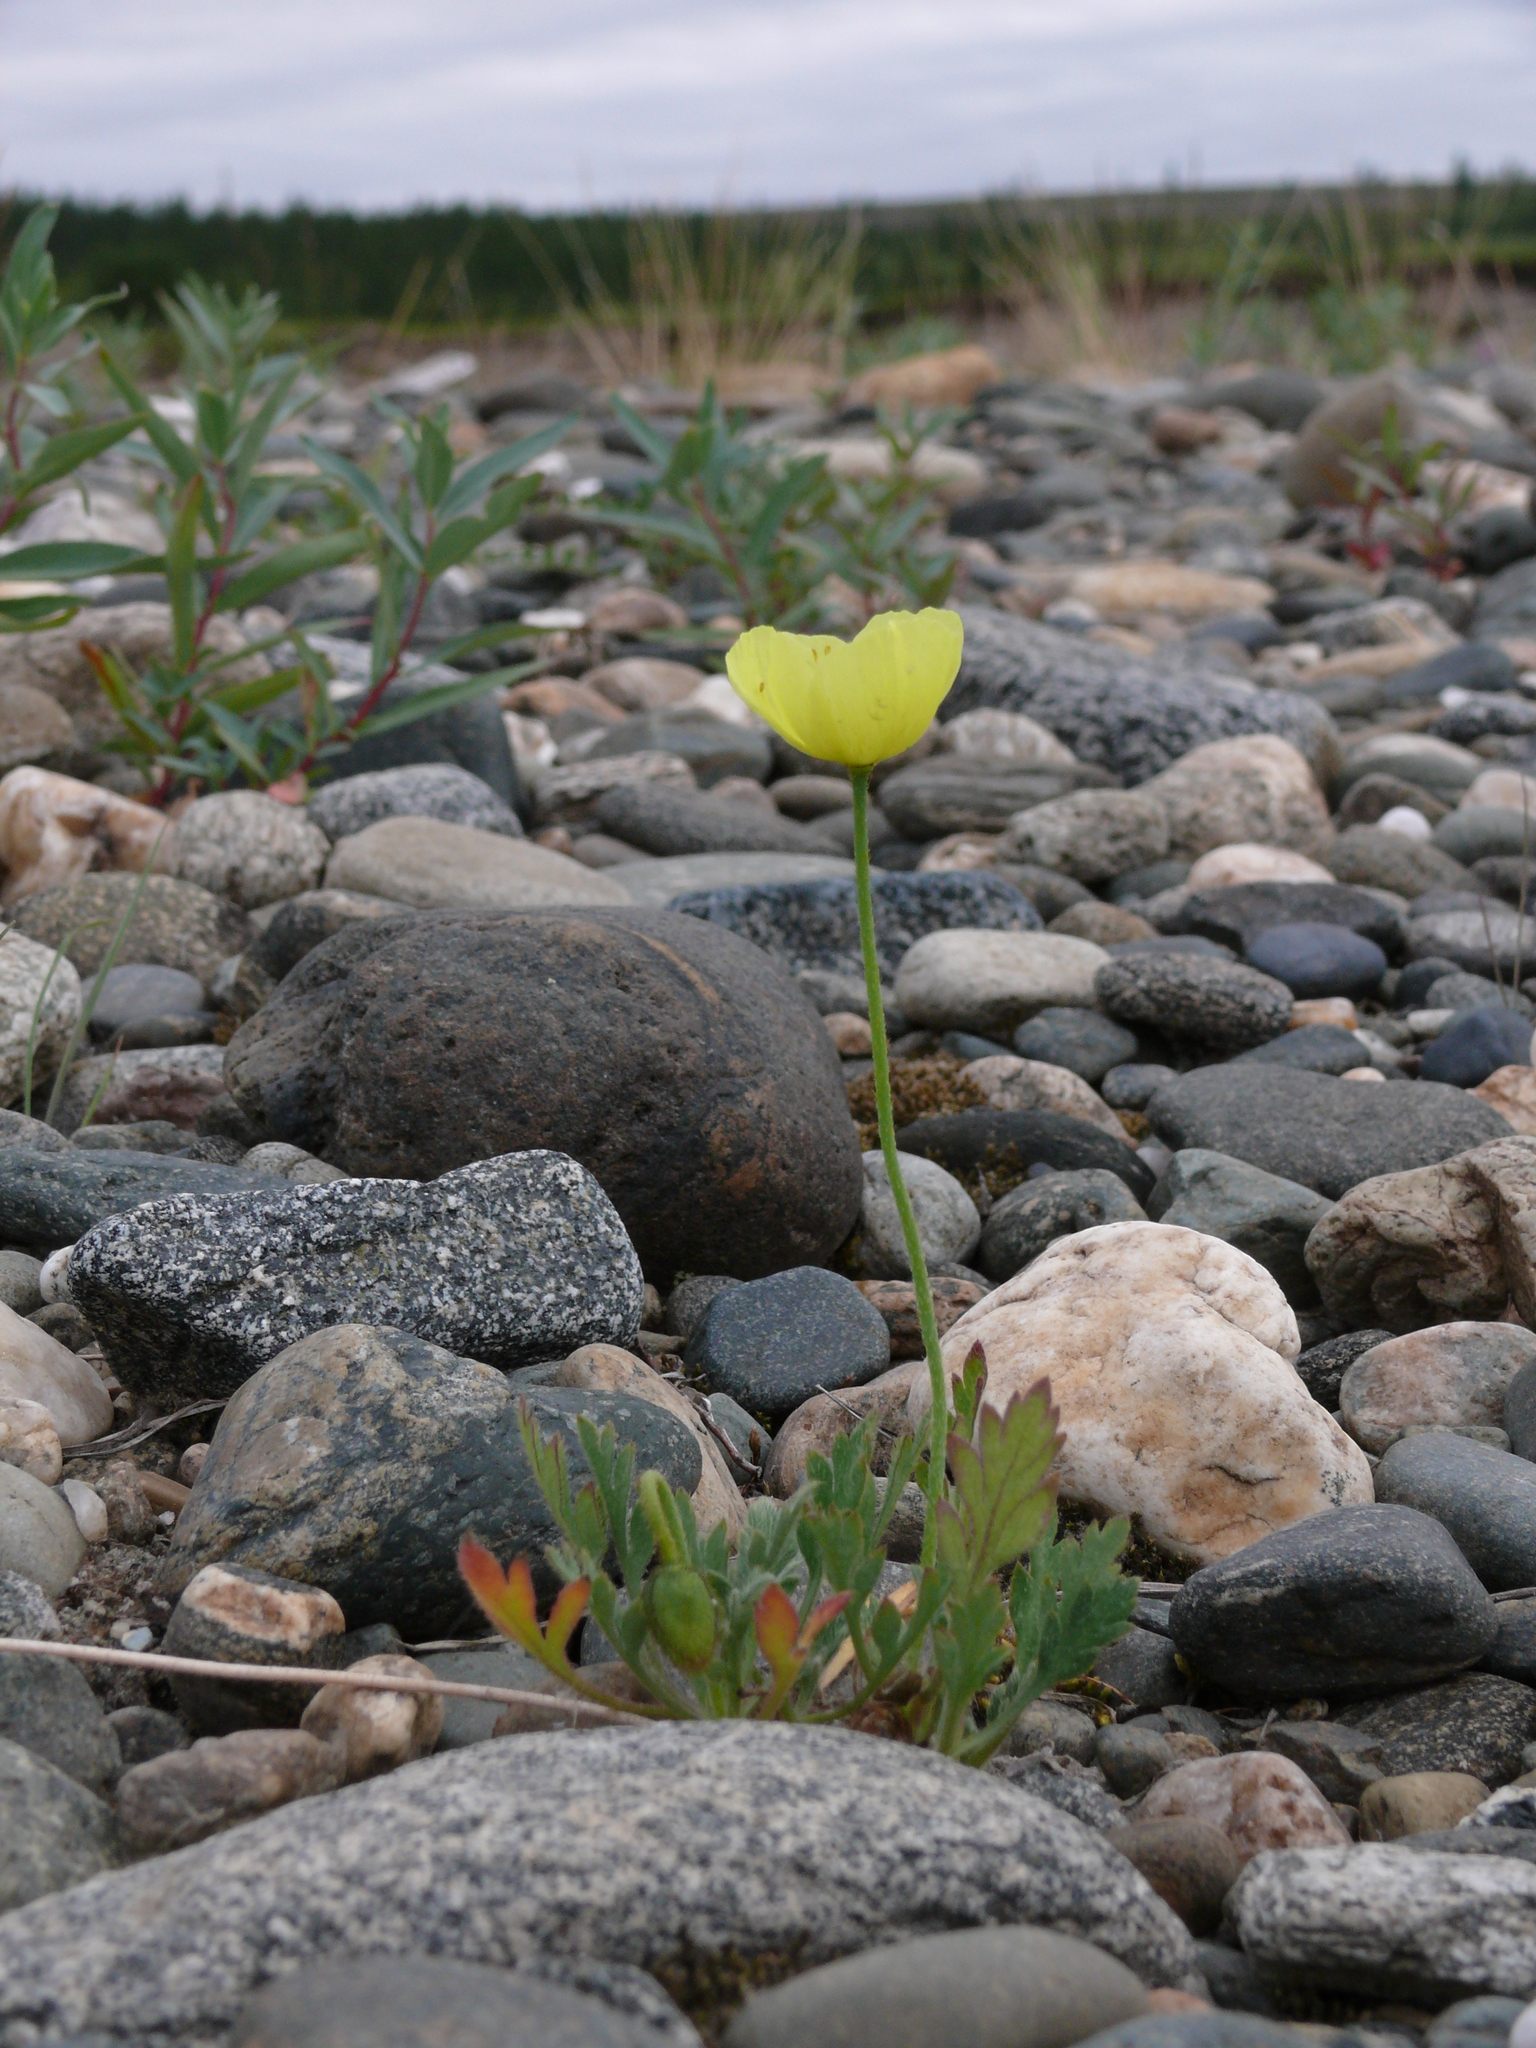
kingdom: Plantae
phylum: Tracheophyta
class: Magnoliopsida
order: Ranunculales
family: Papaveraceae
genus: Papaver
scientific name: Papaver lapponicum
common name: Lapland poppy
